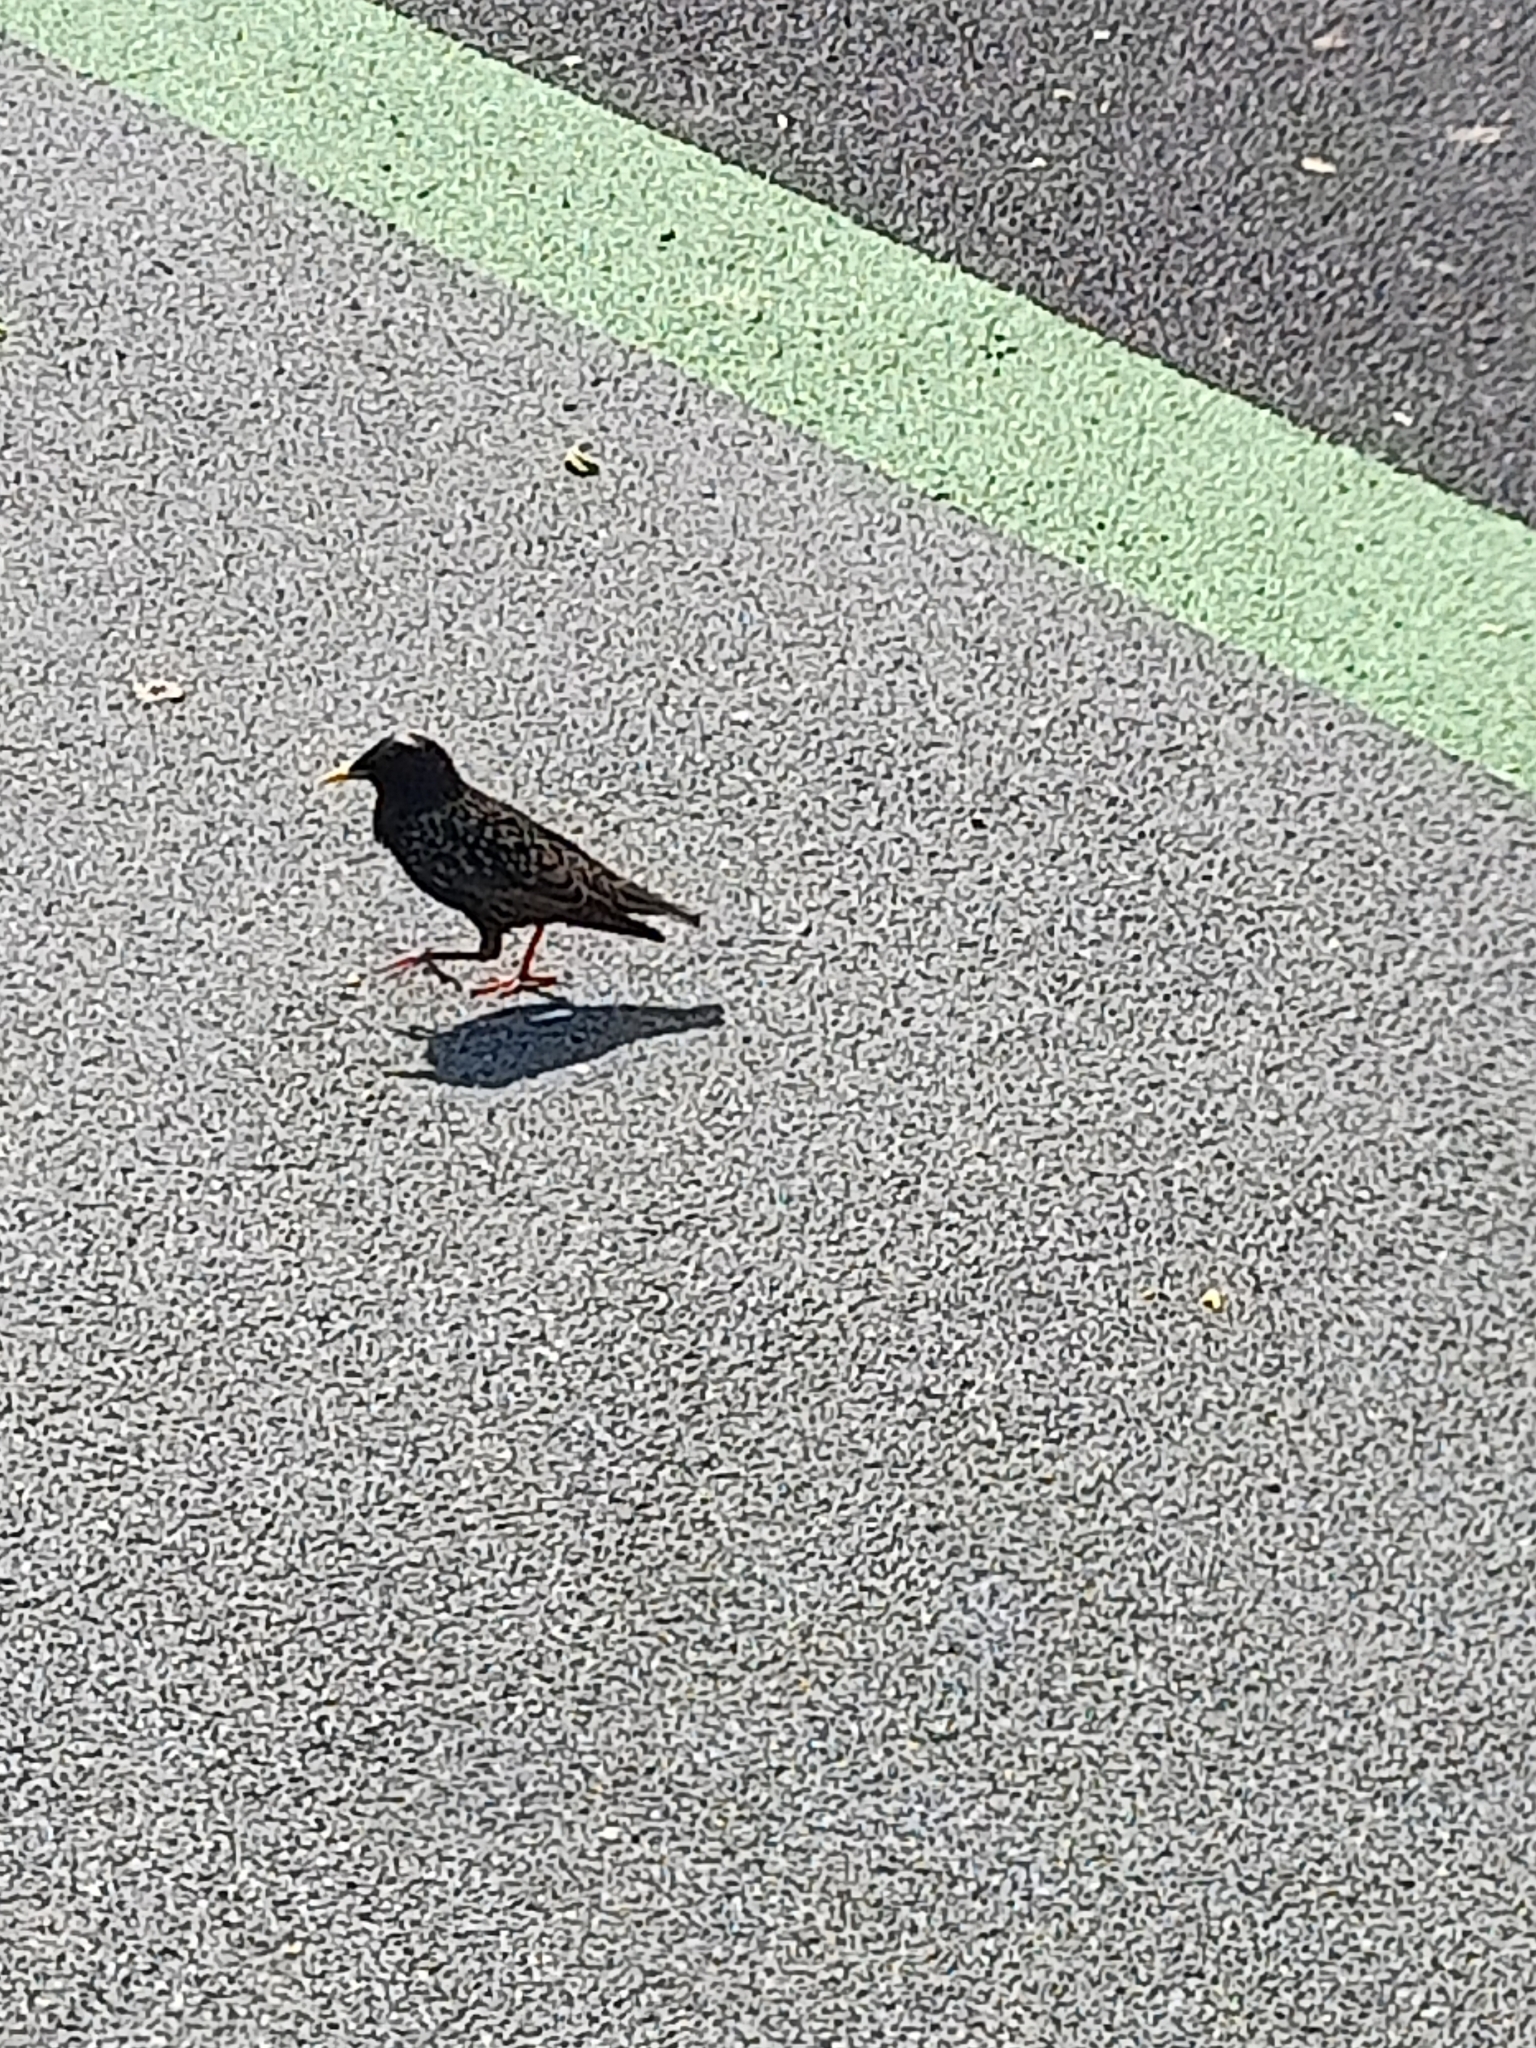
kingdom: Animalia
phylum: Chordata
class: Aves
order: Passeriformes
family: Sturnidae
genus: Sturnus
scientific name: Sturnus vulgaris
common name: Common starling
